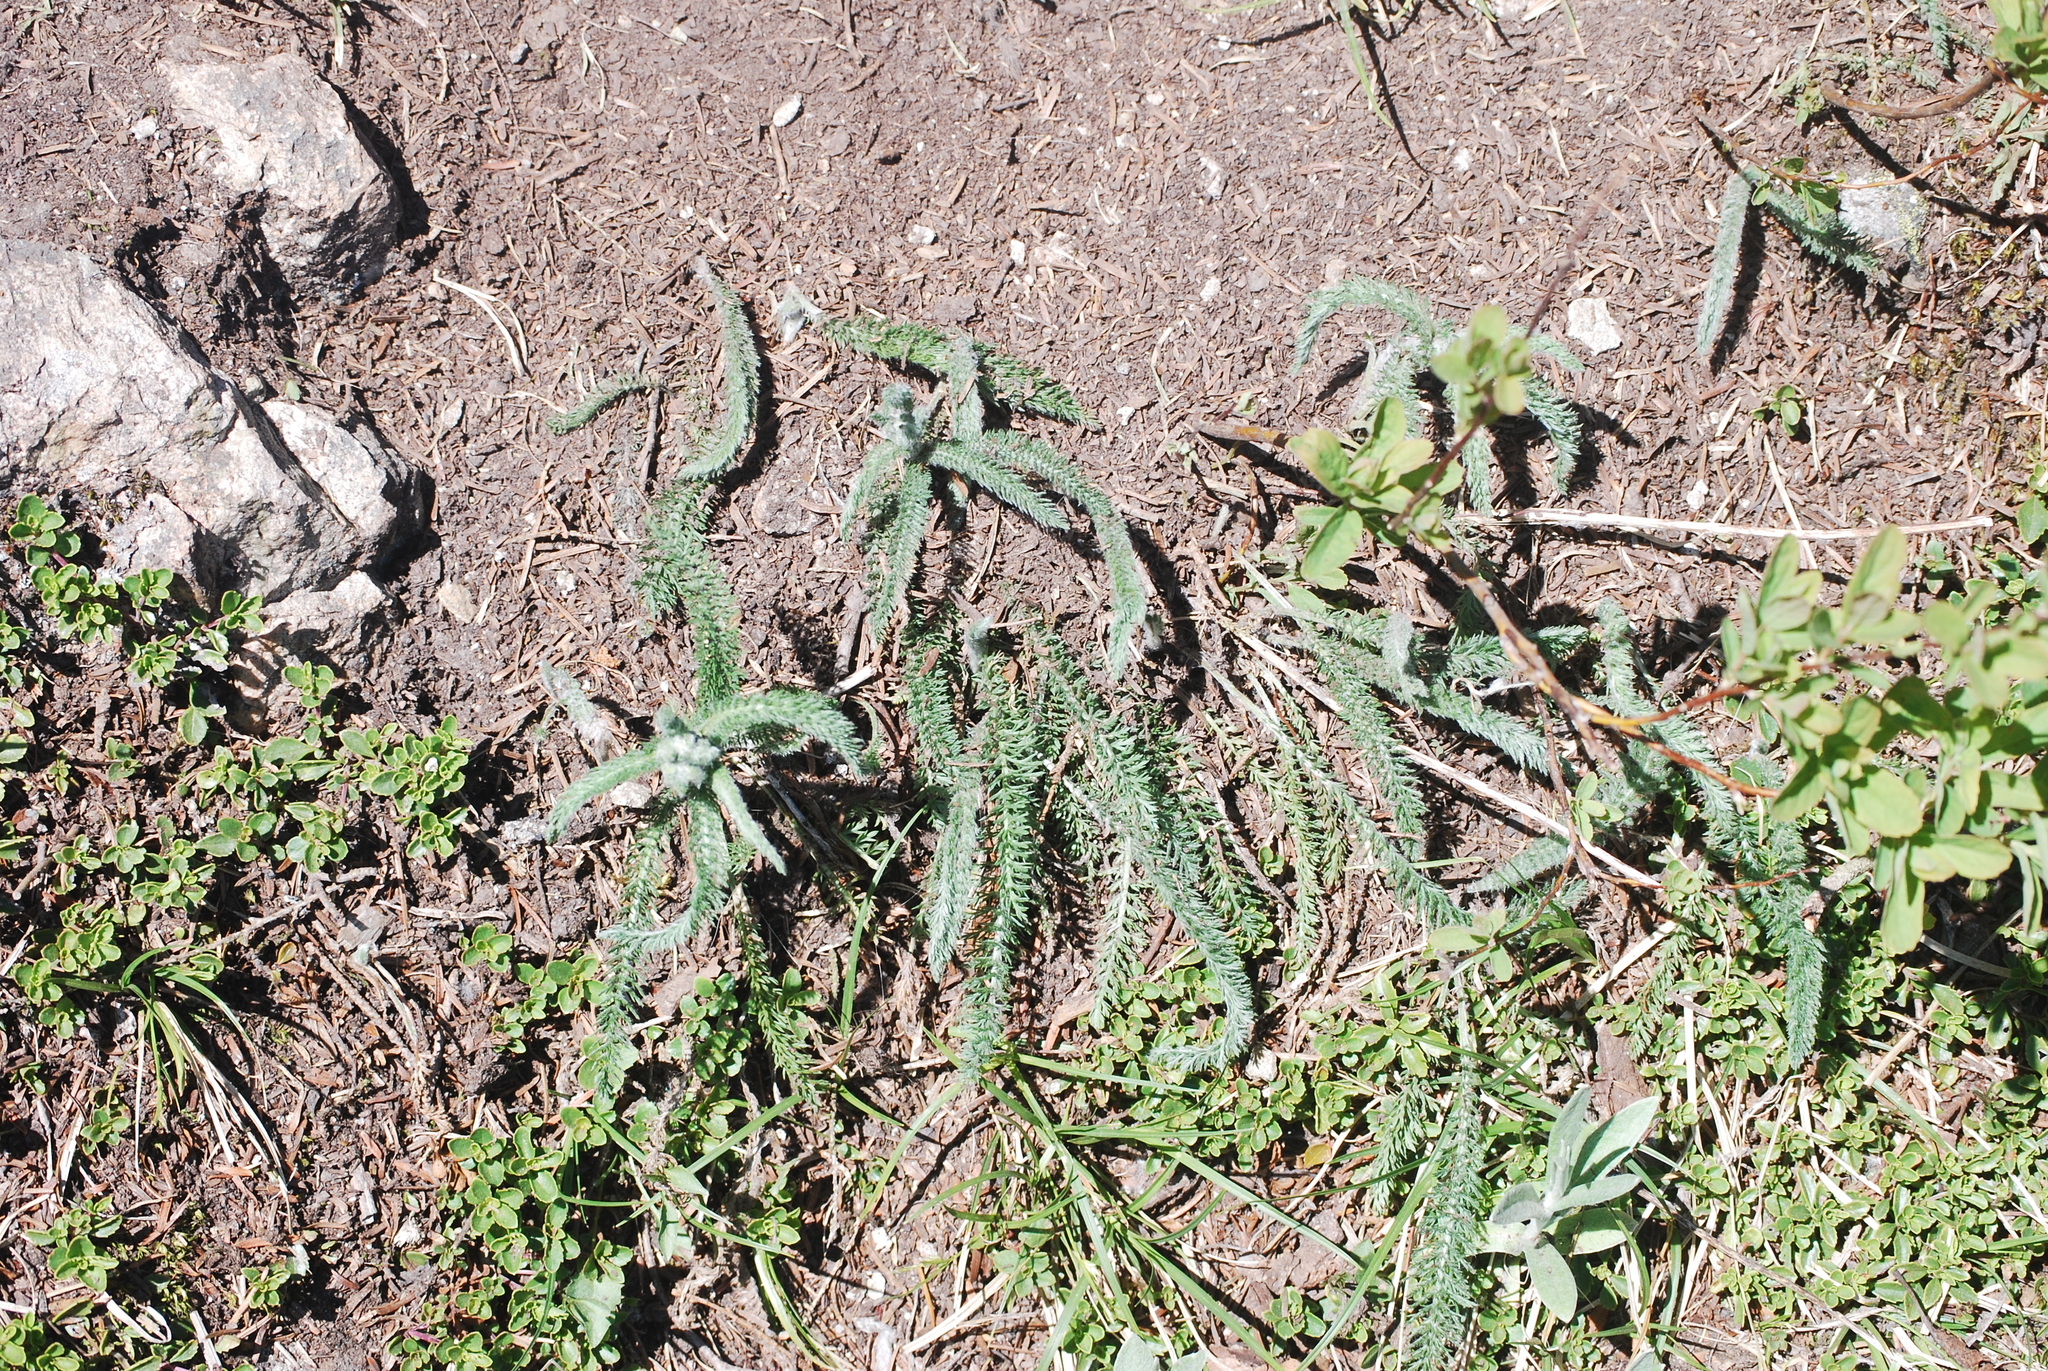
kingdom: Plantae
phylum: Tracheophyta
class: Magnoliopsida
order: Asterales
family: Asteraceae
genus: Achillea
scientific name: Achillea millefolium
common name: Yarrow
